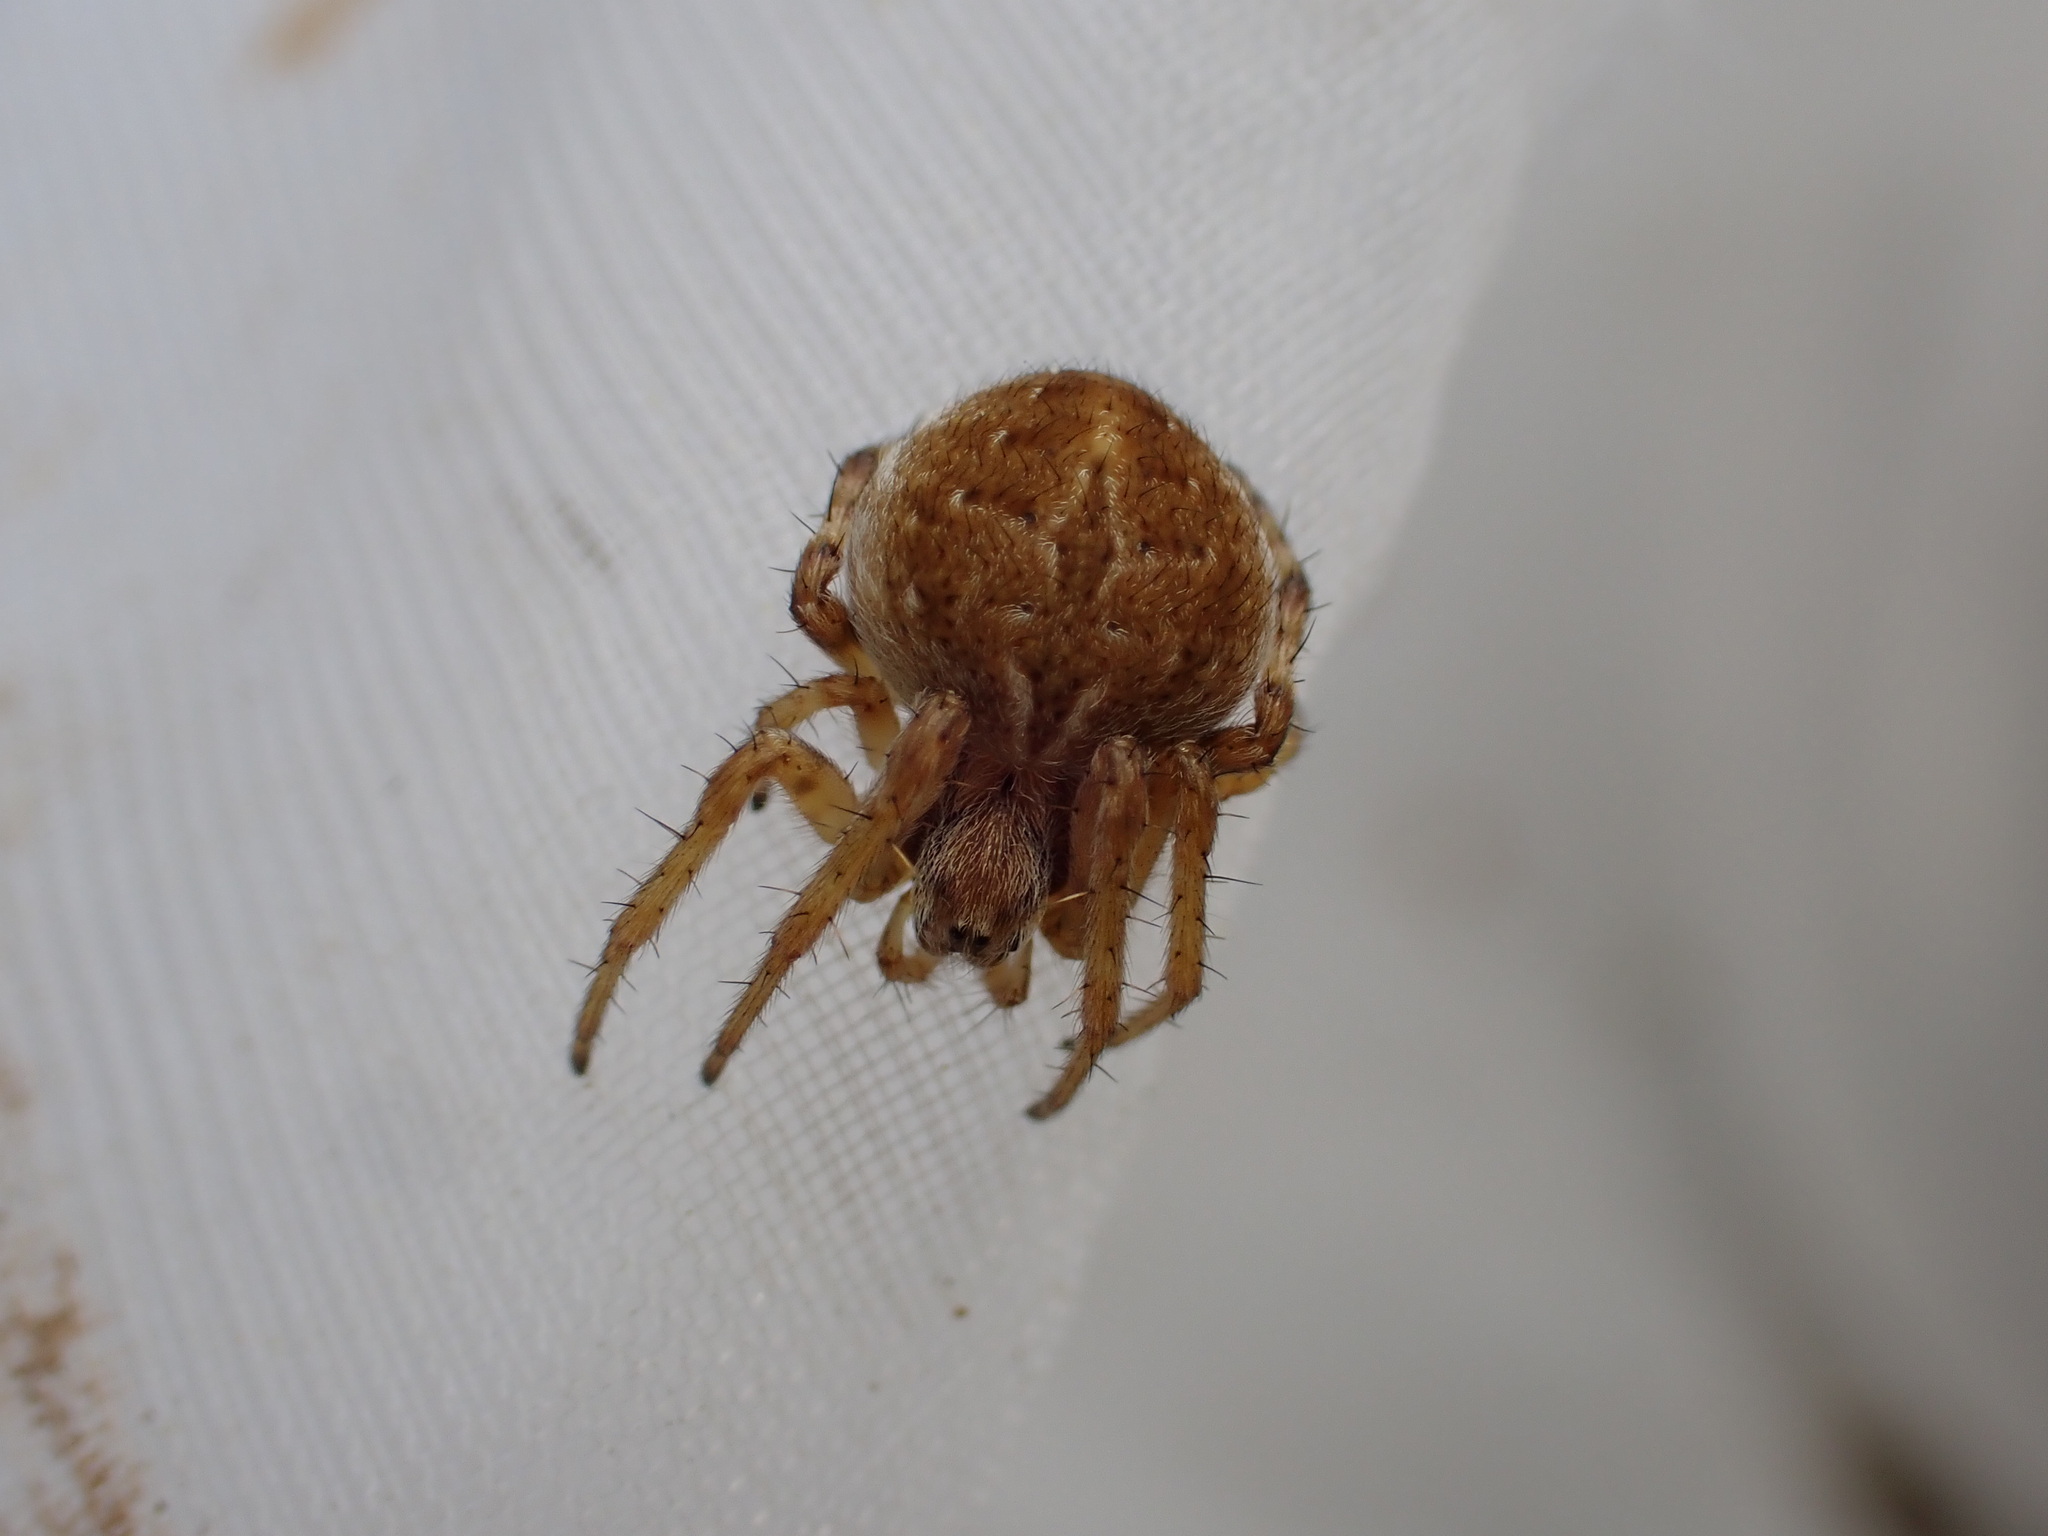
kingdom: Animalia
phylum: Arthropoda
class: Arachnida
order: Araneae
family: Araneidae
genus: Agalenatea
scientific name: Agalenatea redii
